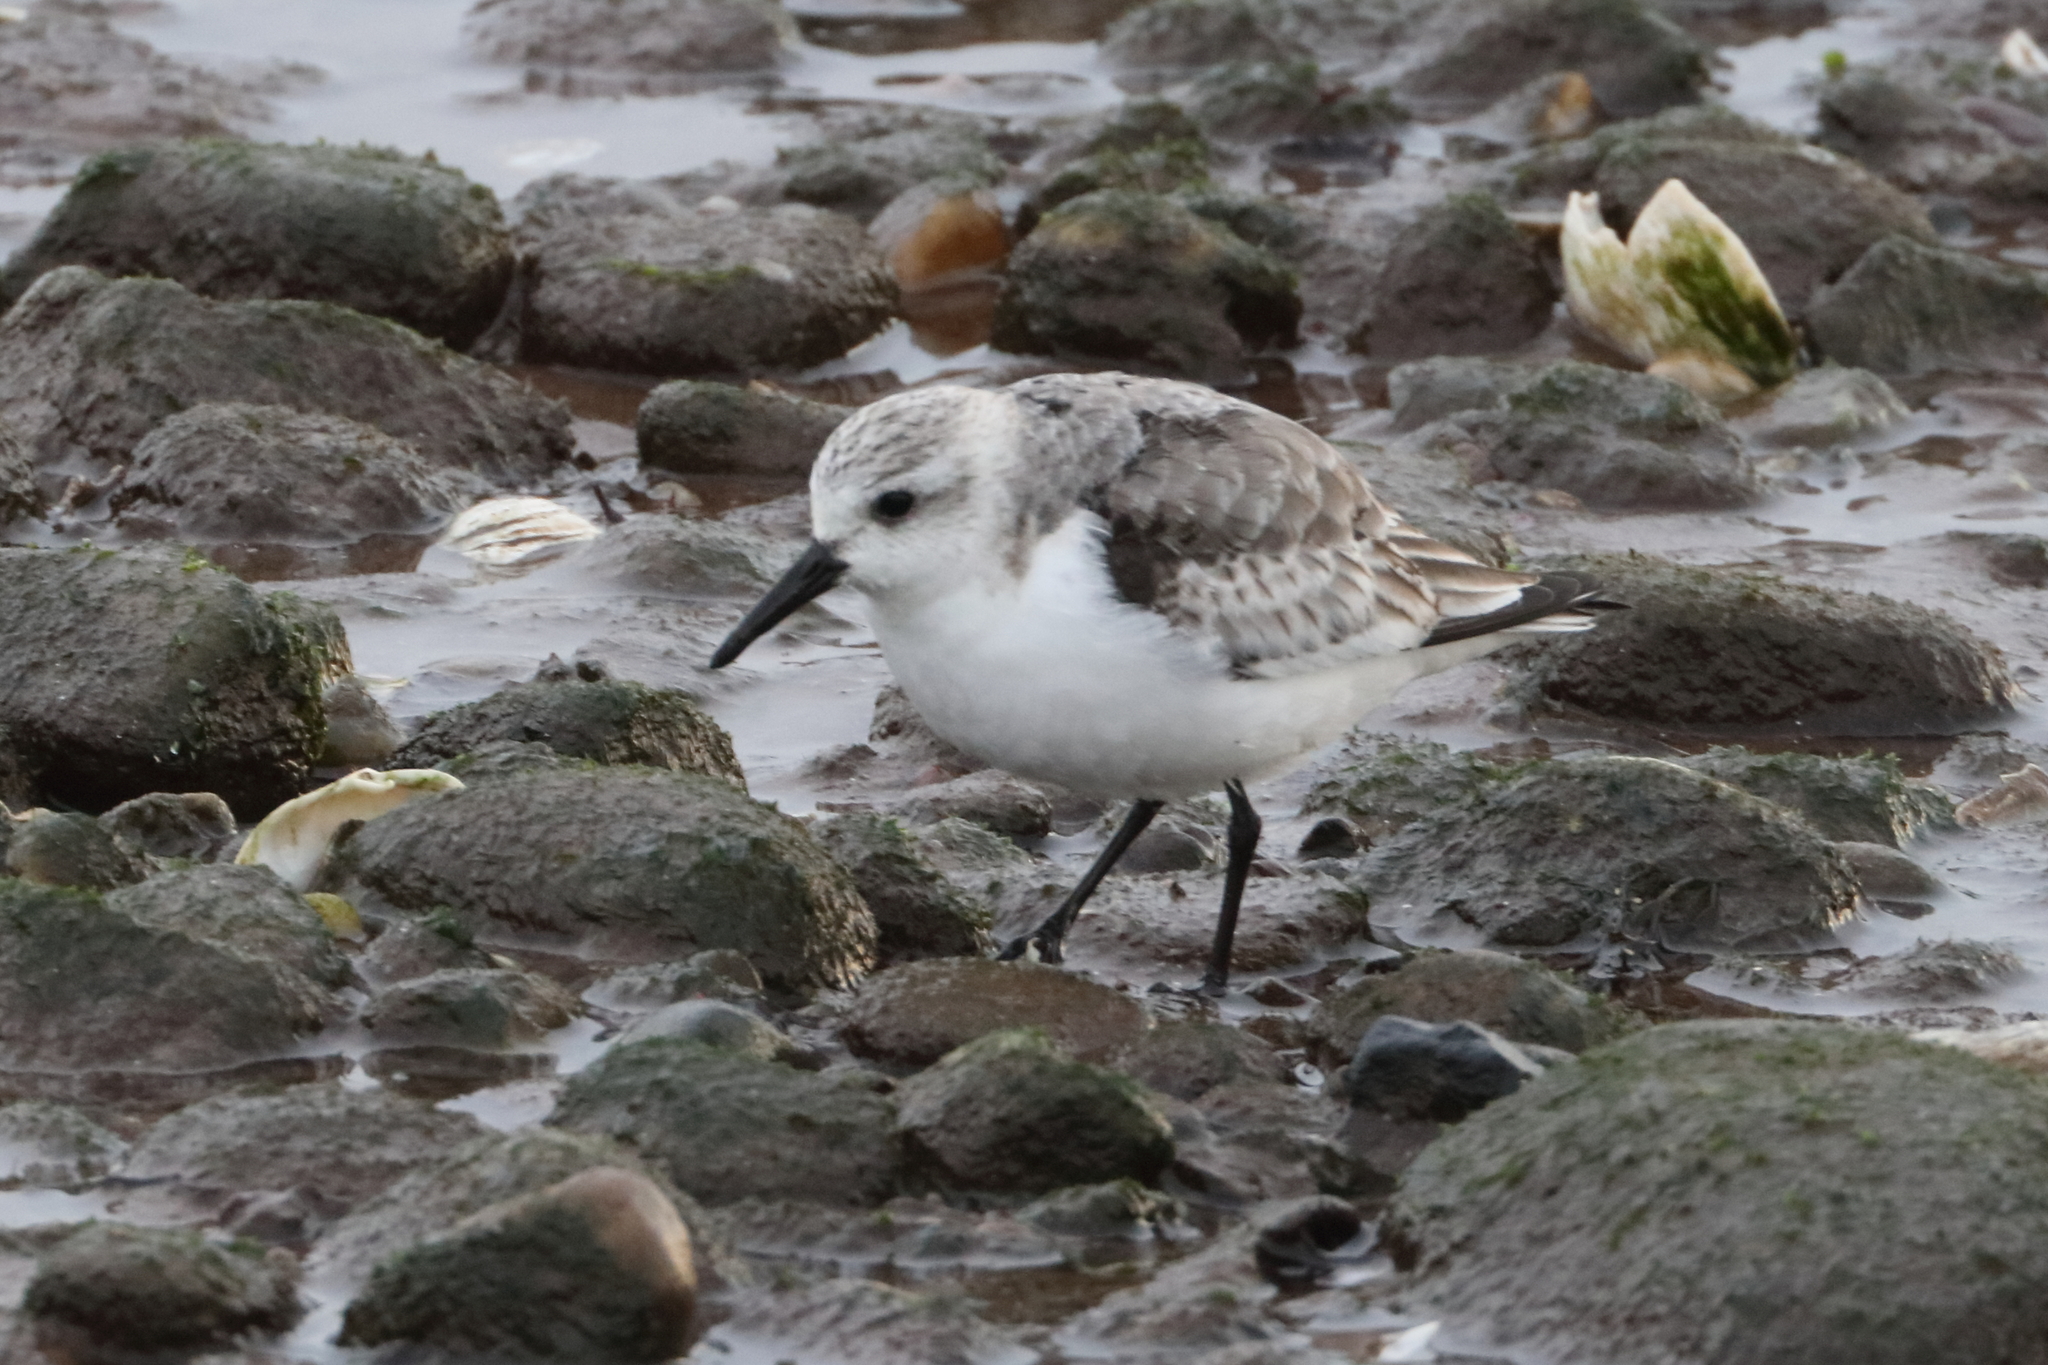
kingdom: Animalia
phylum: Chordata
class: Aves
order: Charadriiformes
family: Scolopacidae
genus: Calidris
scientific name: Calidris alba
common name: Sanderling
